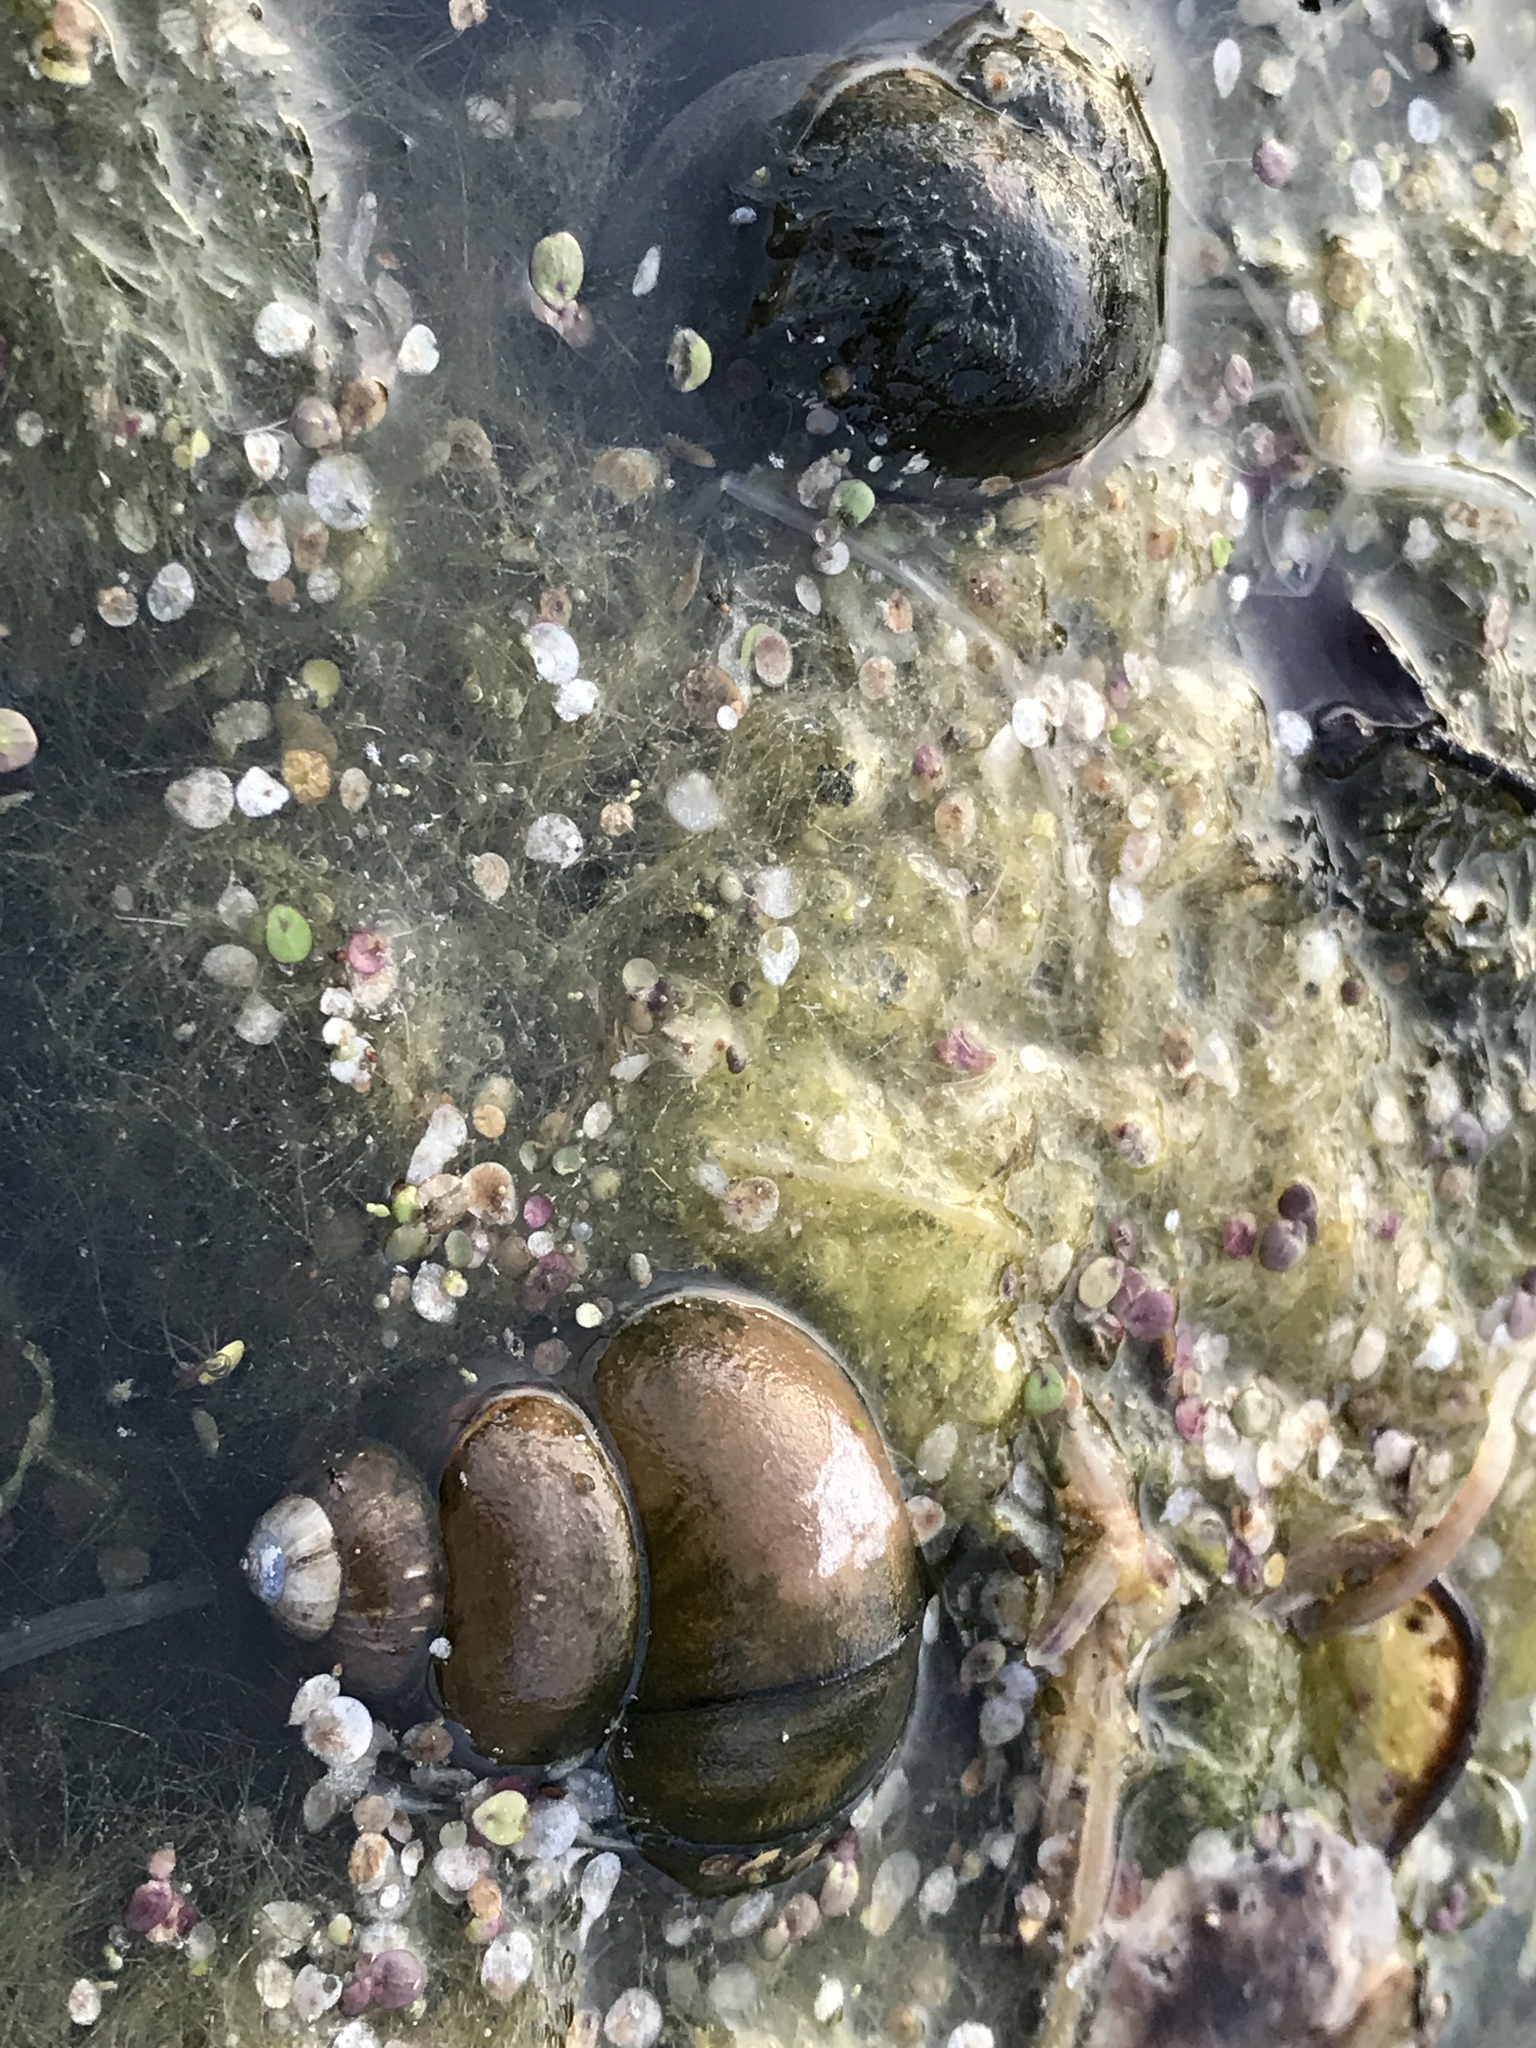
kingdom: Animalia
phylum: Mollusca
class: Gastropoda
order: Architaenioglossa
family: Viviparidae
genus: Cipangopaludina
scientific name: Cipangopaludina chinensis
